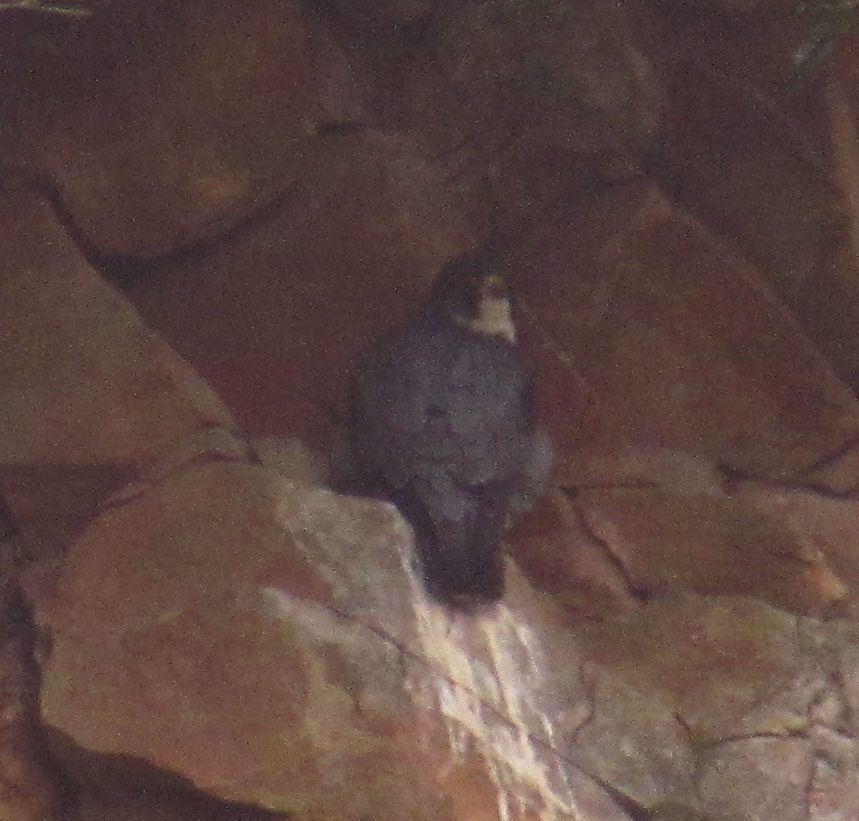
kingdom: Animalia
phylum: Chordata
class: Aves
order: Falconiformes
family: Falconidae
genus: Falco
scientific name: Falco peregrinus
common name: Peregrine falcon
